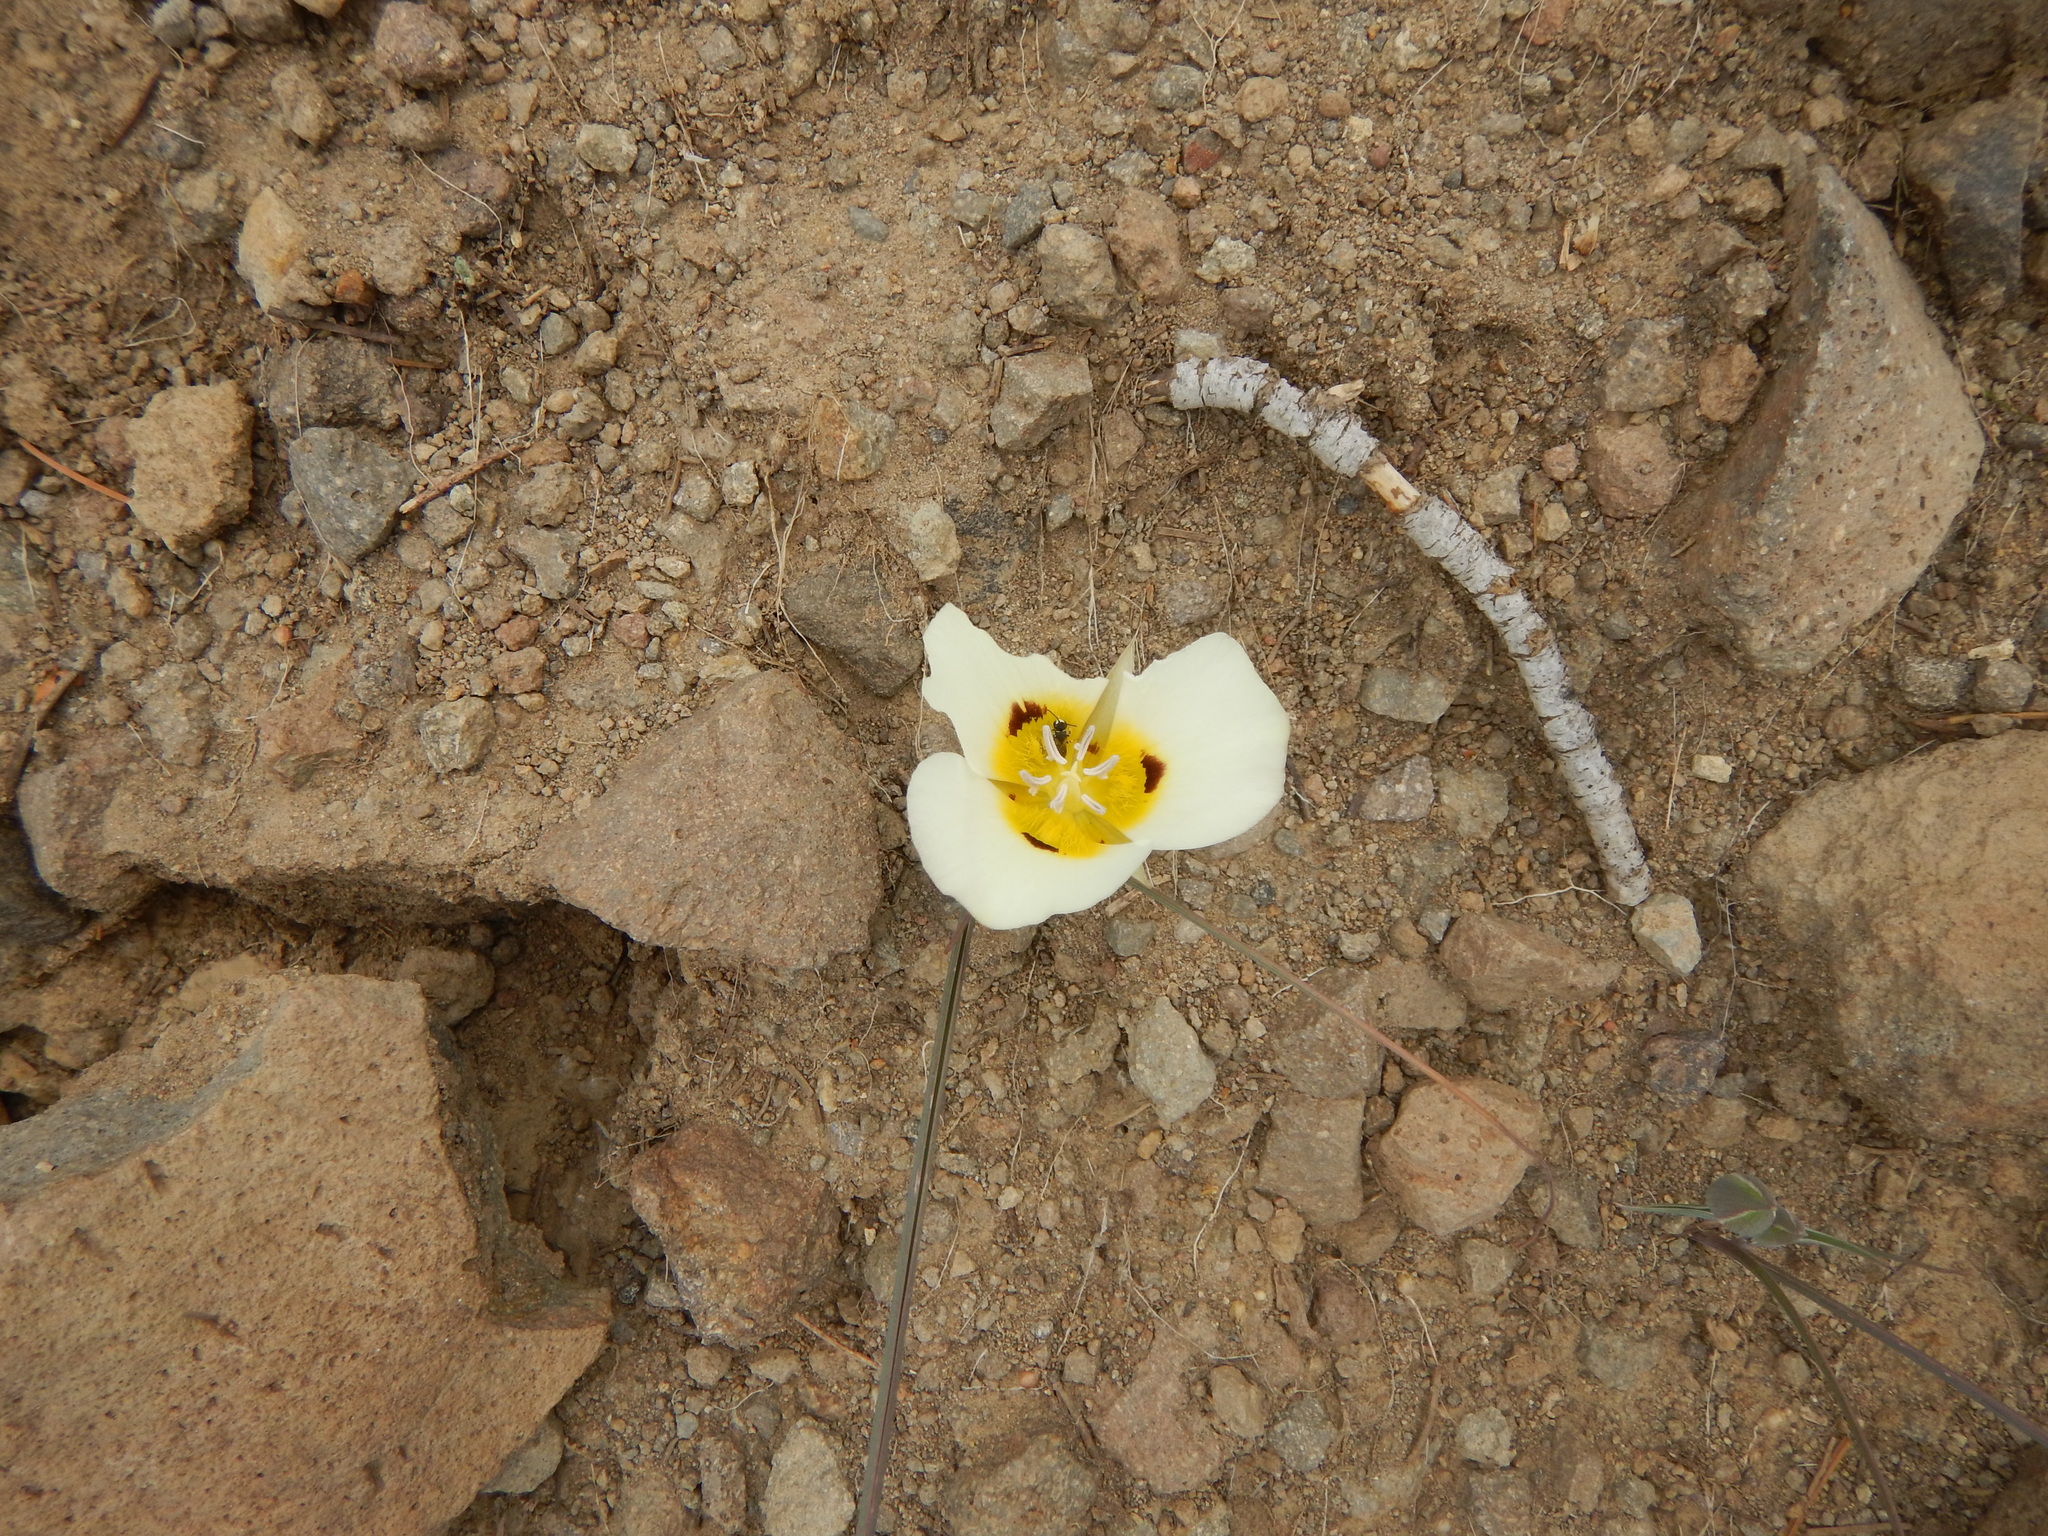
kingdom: Plantae
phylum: Tracheophyta
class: Liliopsida
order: Liliales
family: Liliaceae
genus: Calochortus
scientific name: Calochortus leichtlinii
